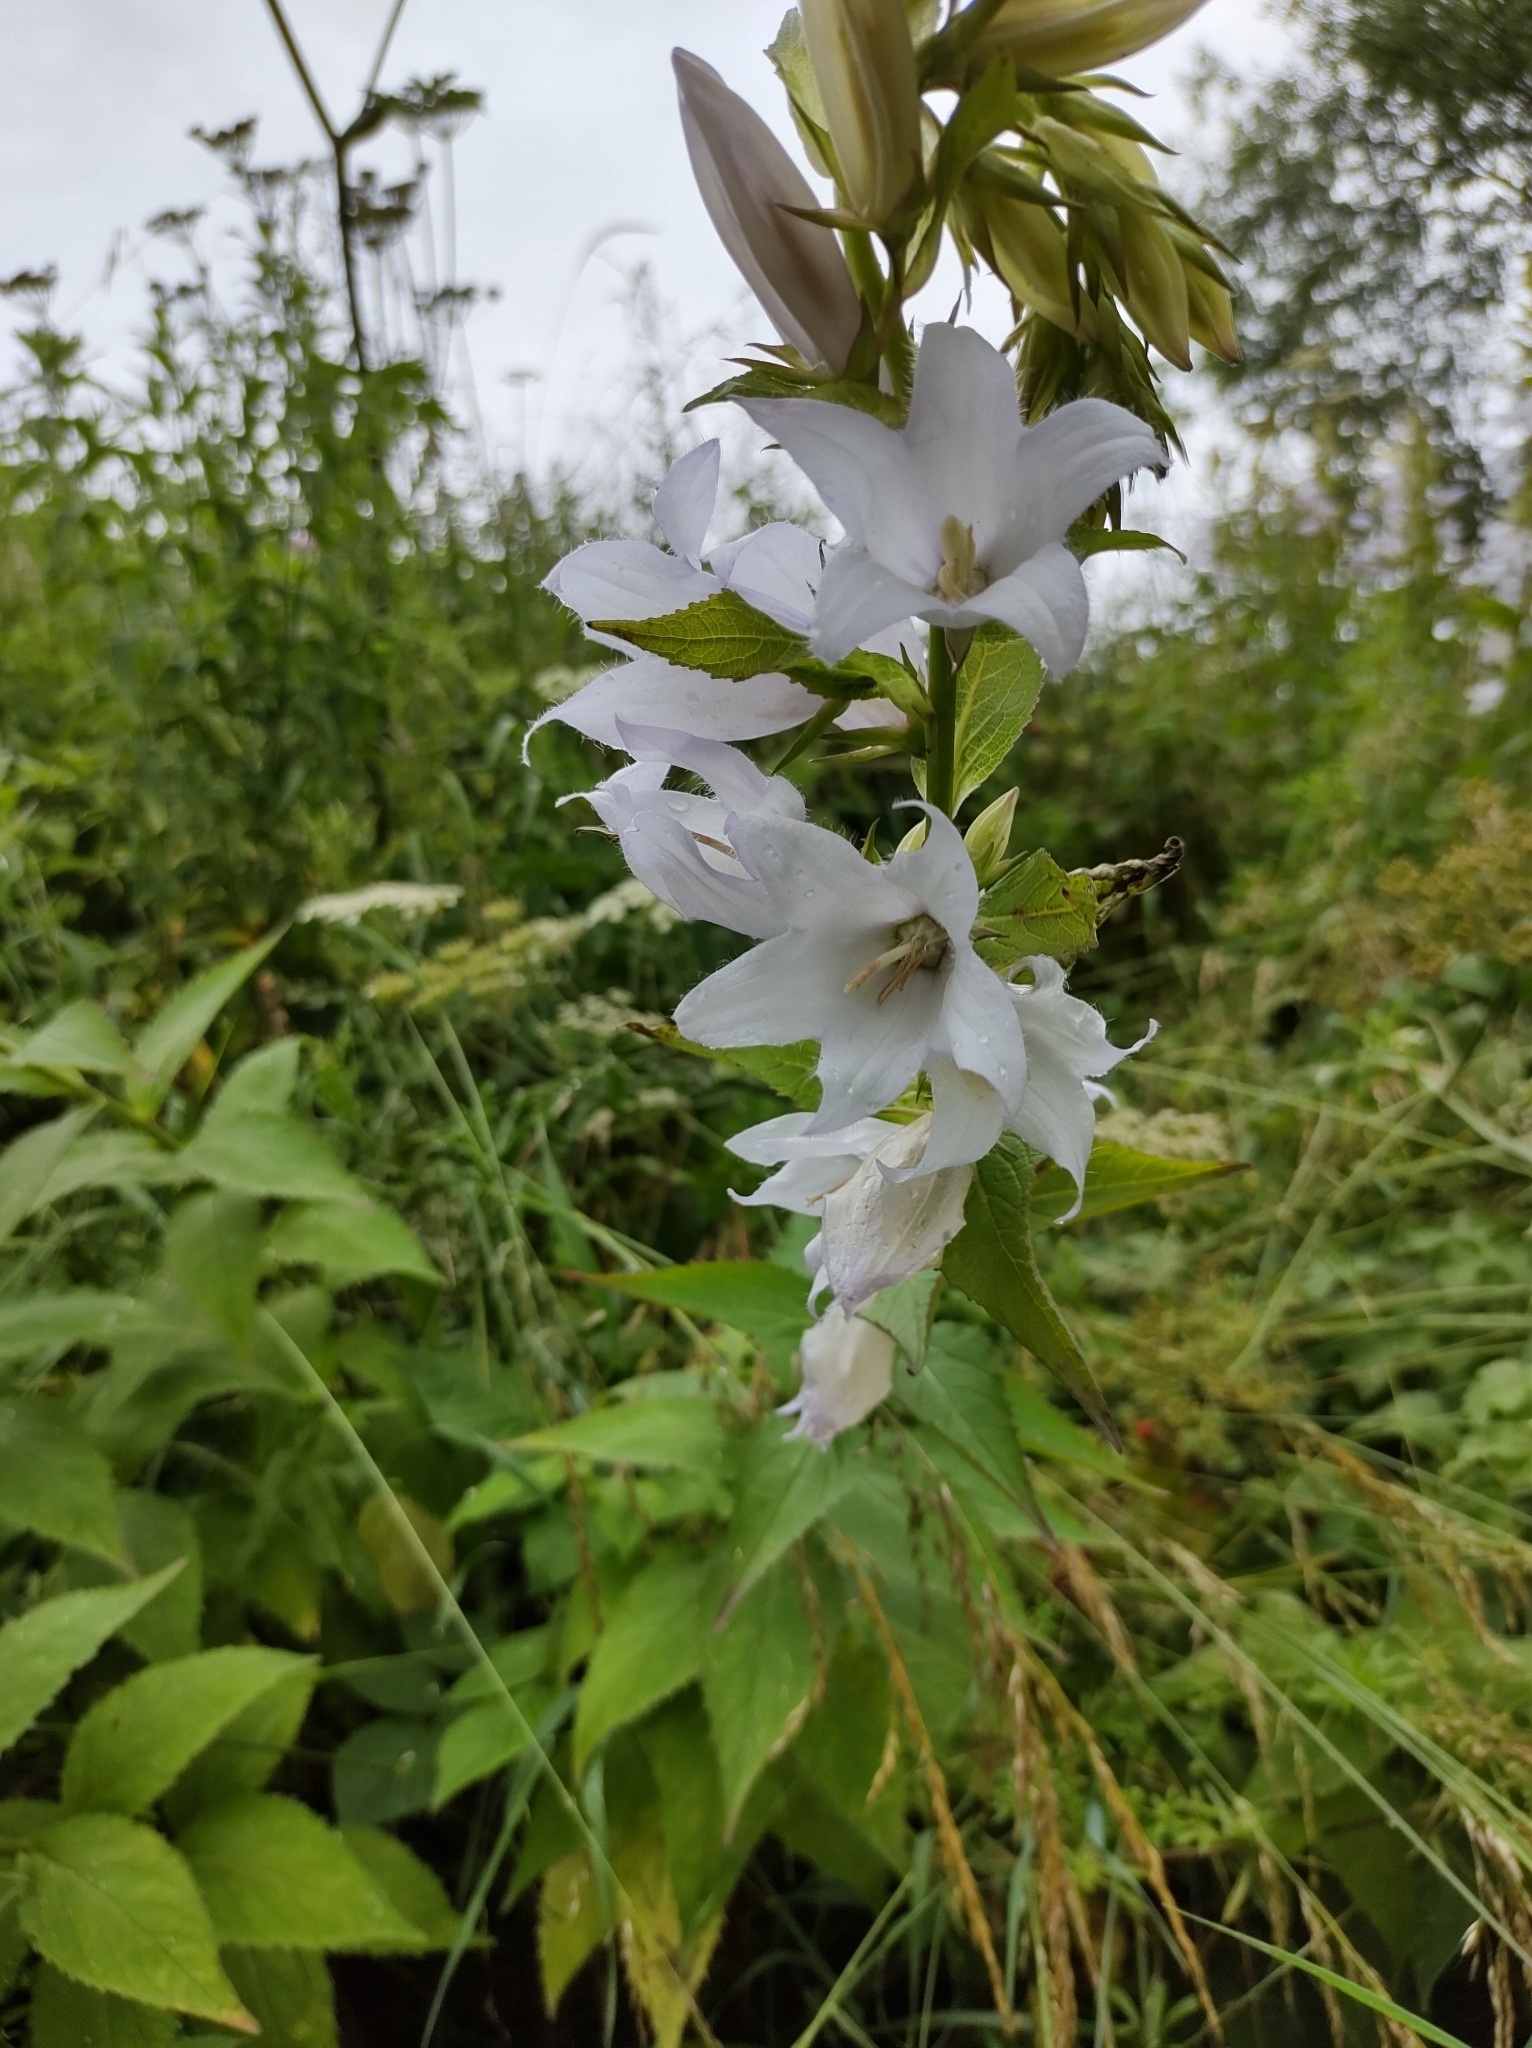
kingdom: Plantae
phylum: Tracheophyta
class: Magnoliopsida
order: Asterales
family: Campanulaceae
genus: Campanula
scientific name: Campanula latifolia
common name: Giant bellflower
